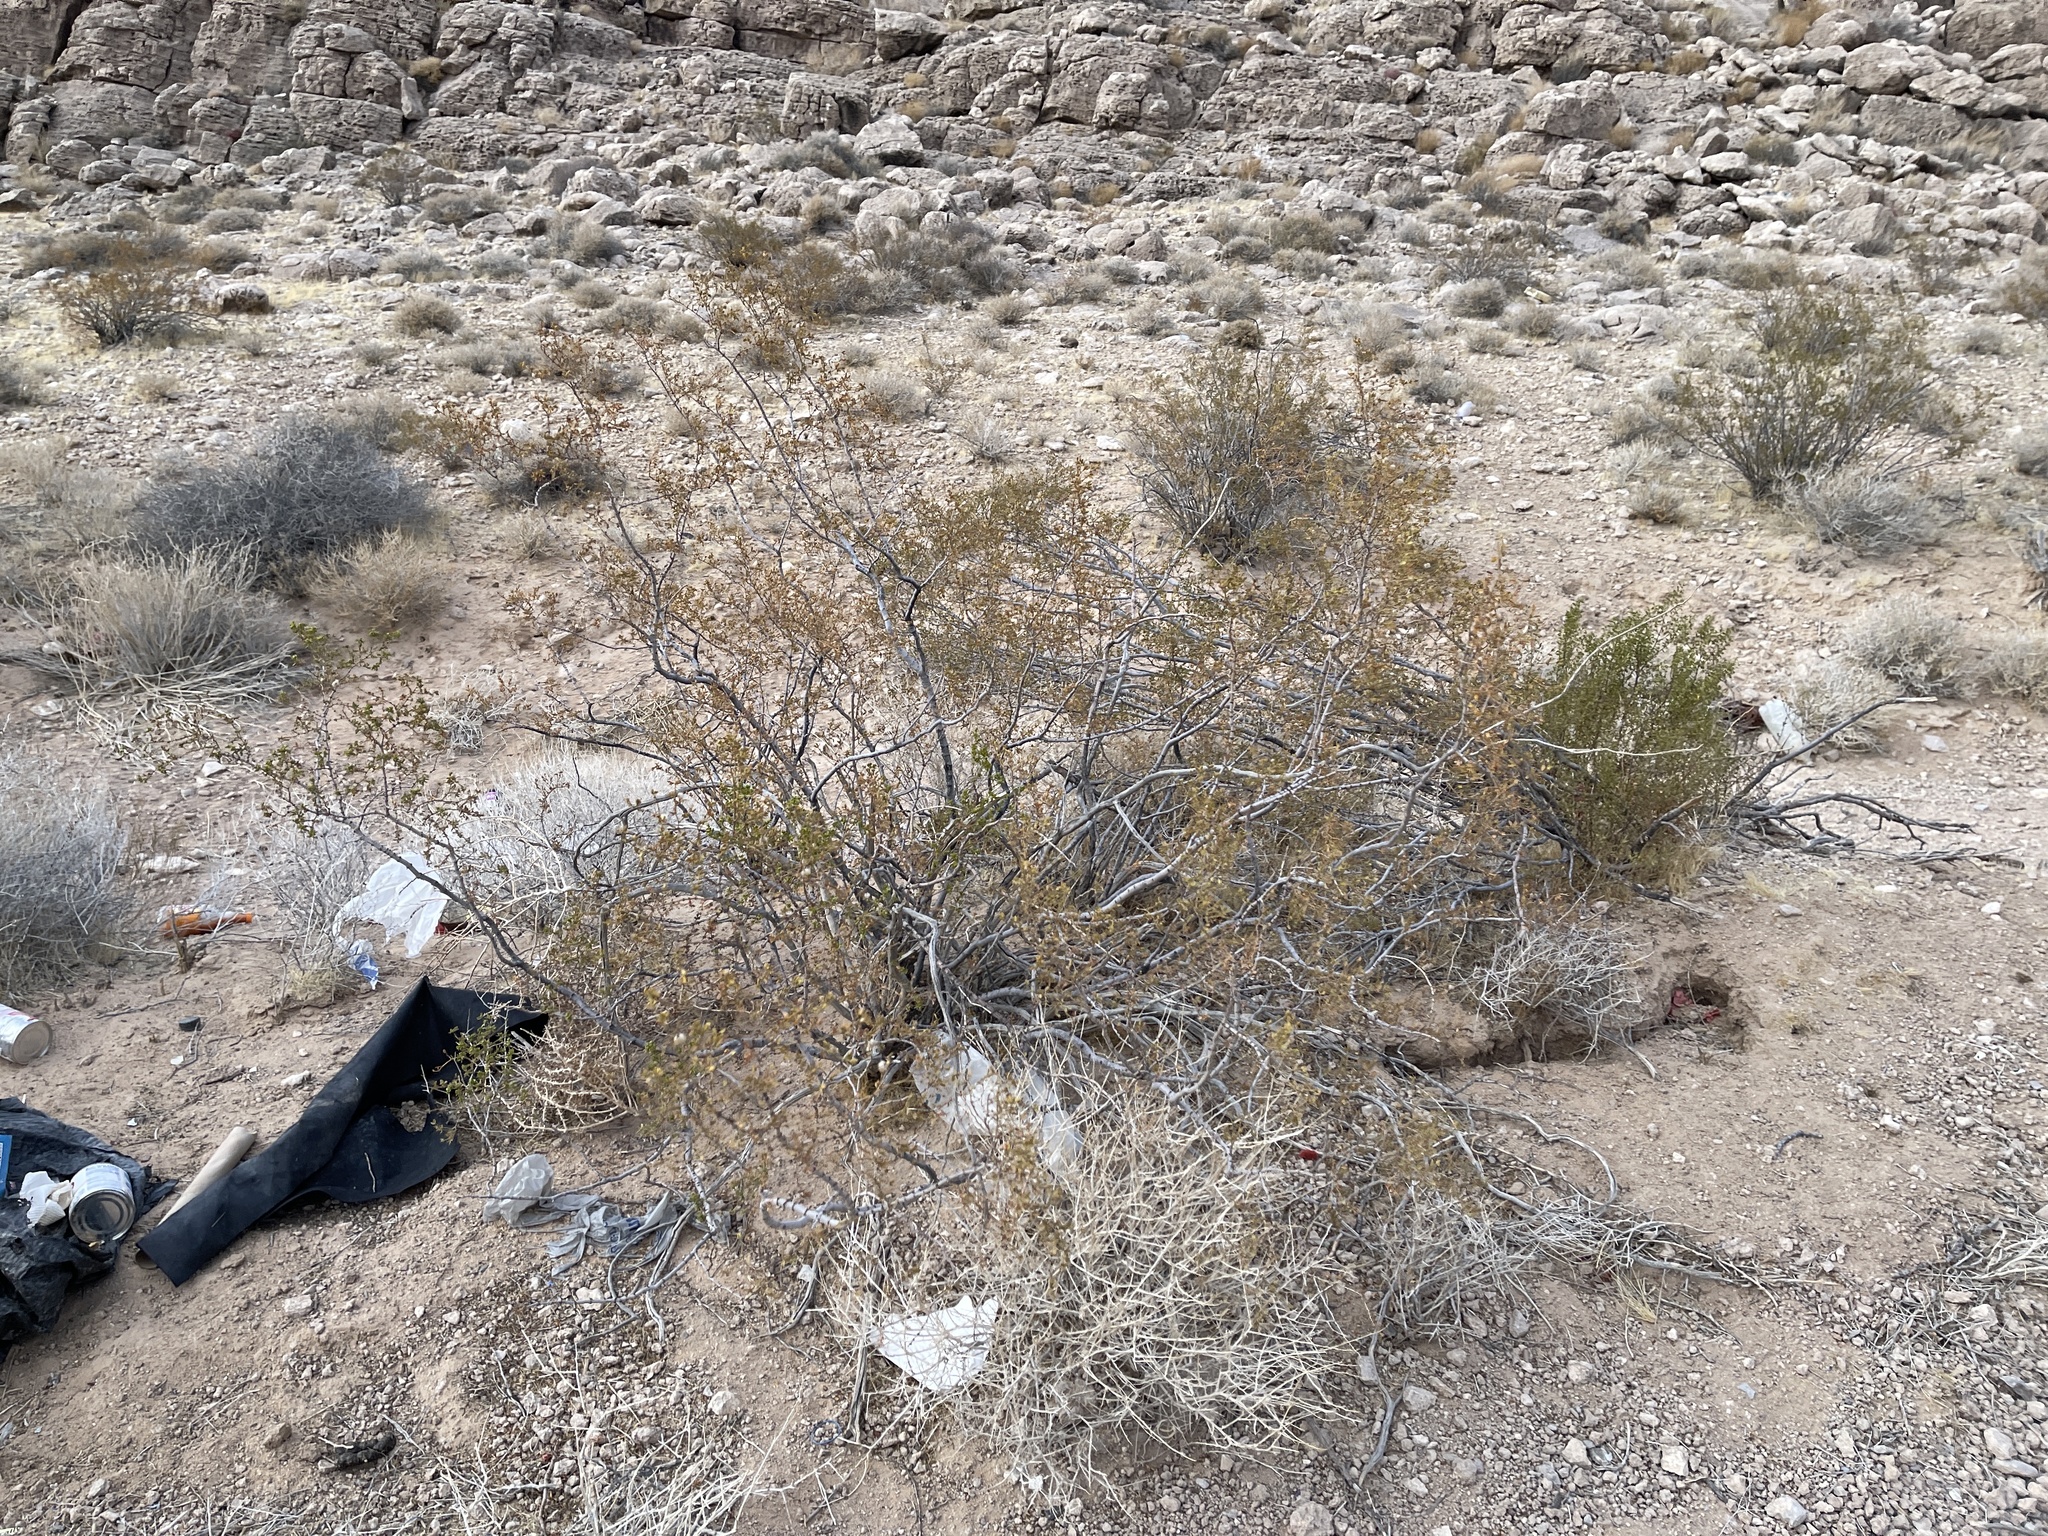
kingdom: Plantae
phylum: Tracheophyta
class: Magnoliopsida
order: Zygophyllales
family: Zygophyllaceae
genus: Larrea
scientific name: Larrea tridentata
